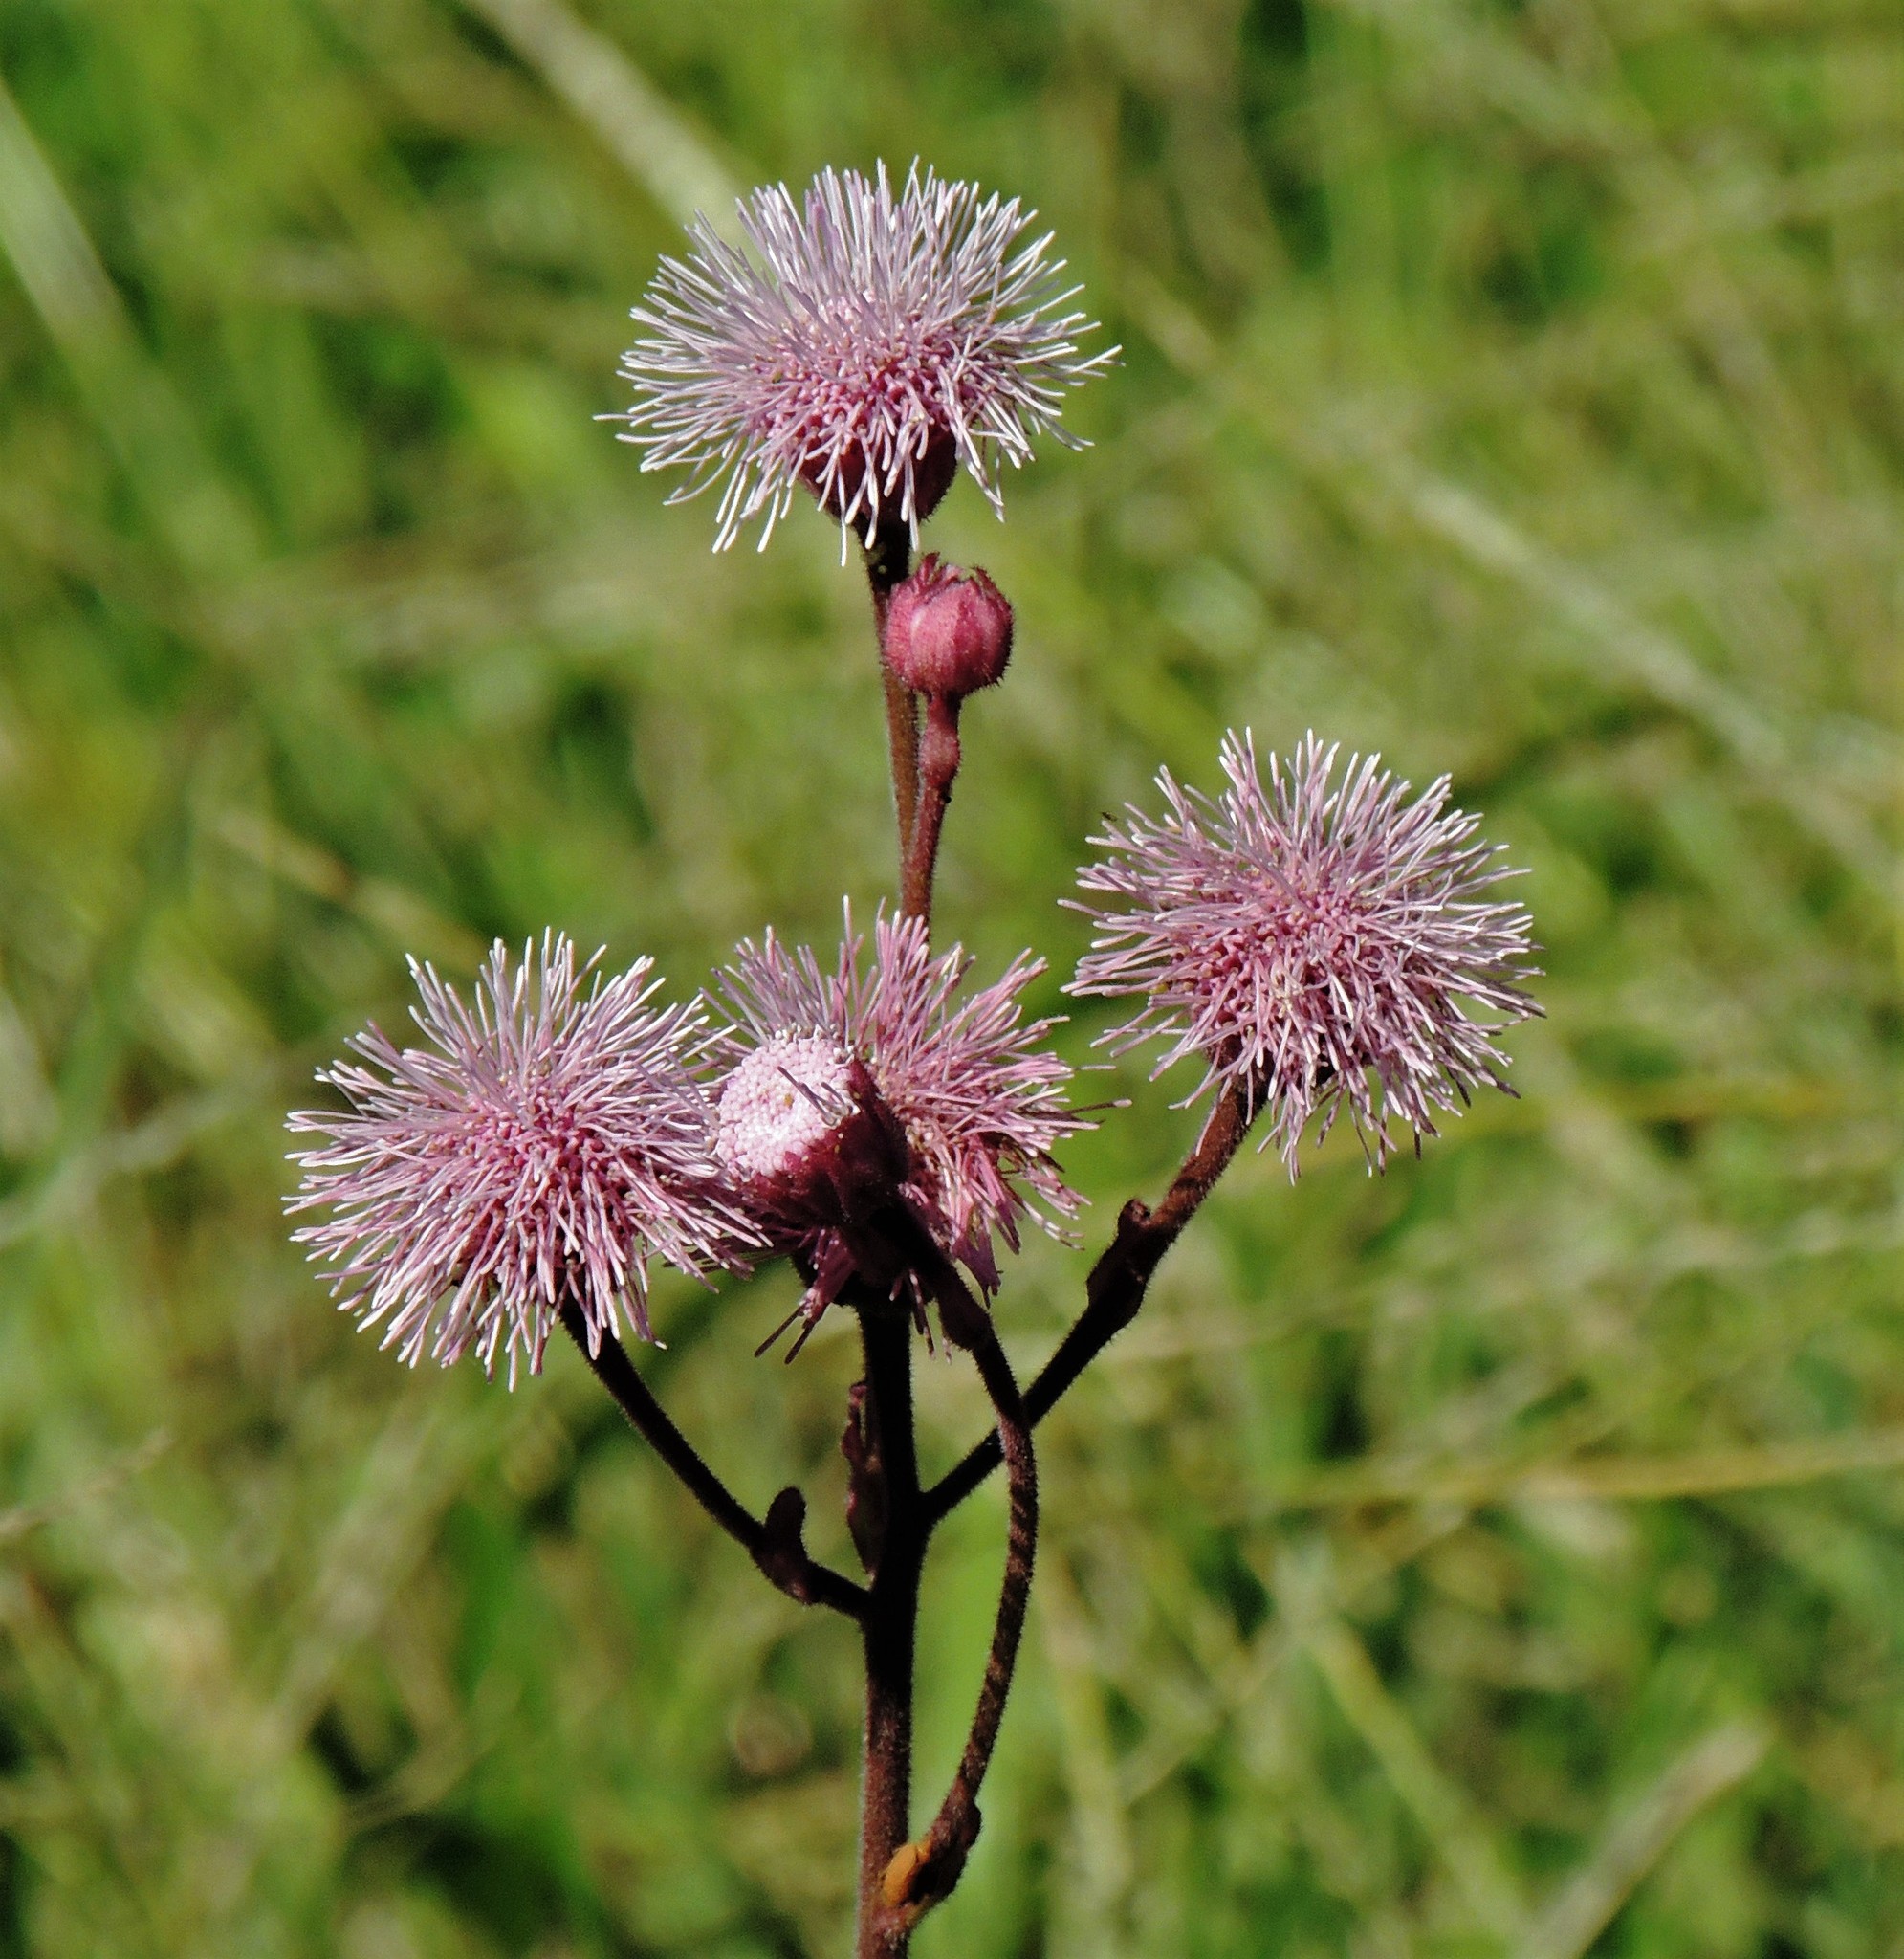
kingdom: Plantae
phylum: Tracheophyta
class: Magnoliopsida
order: Asterales
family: Asteraceae
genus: Campuloclinium
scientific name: Campuloclinium macrocephalum
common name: Pompomweed
